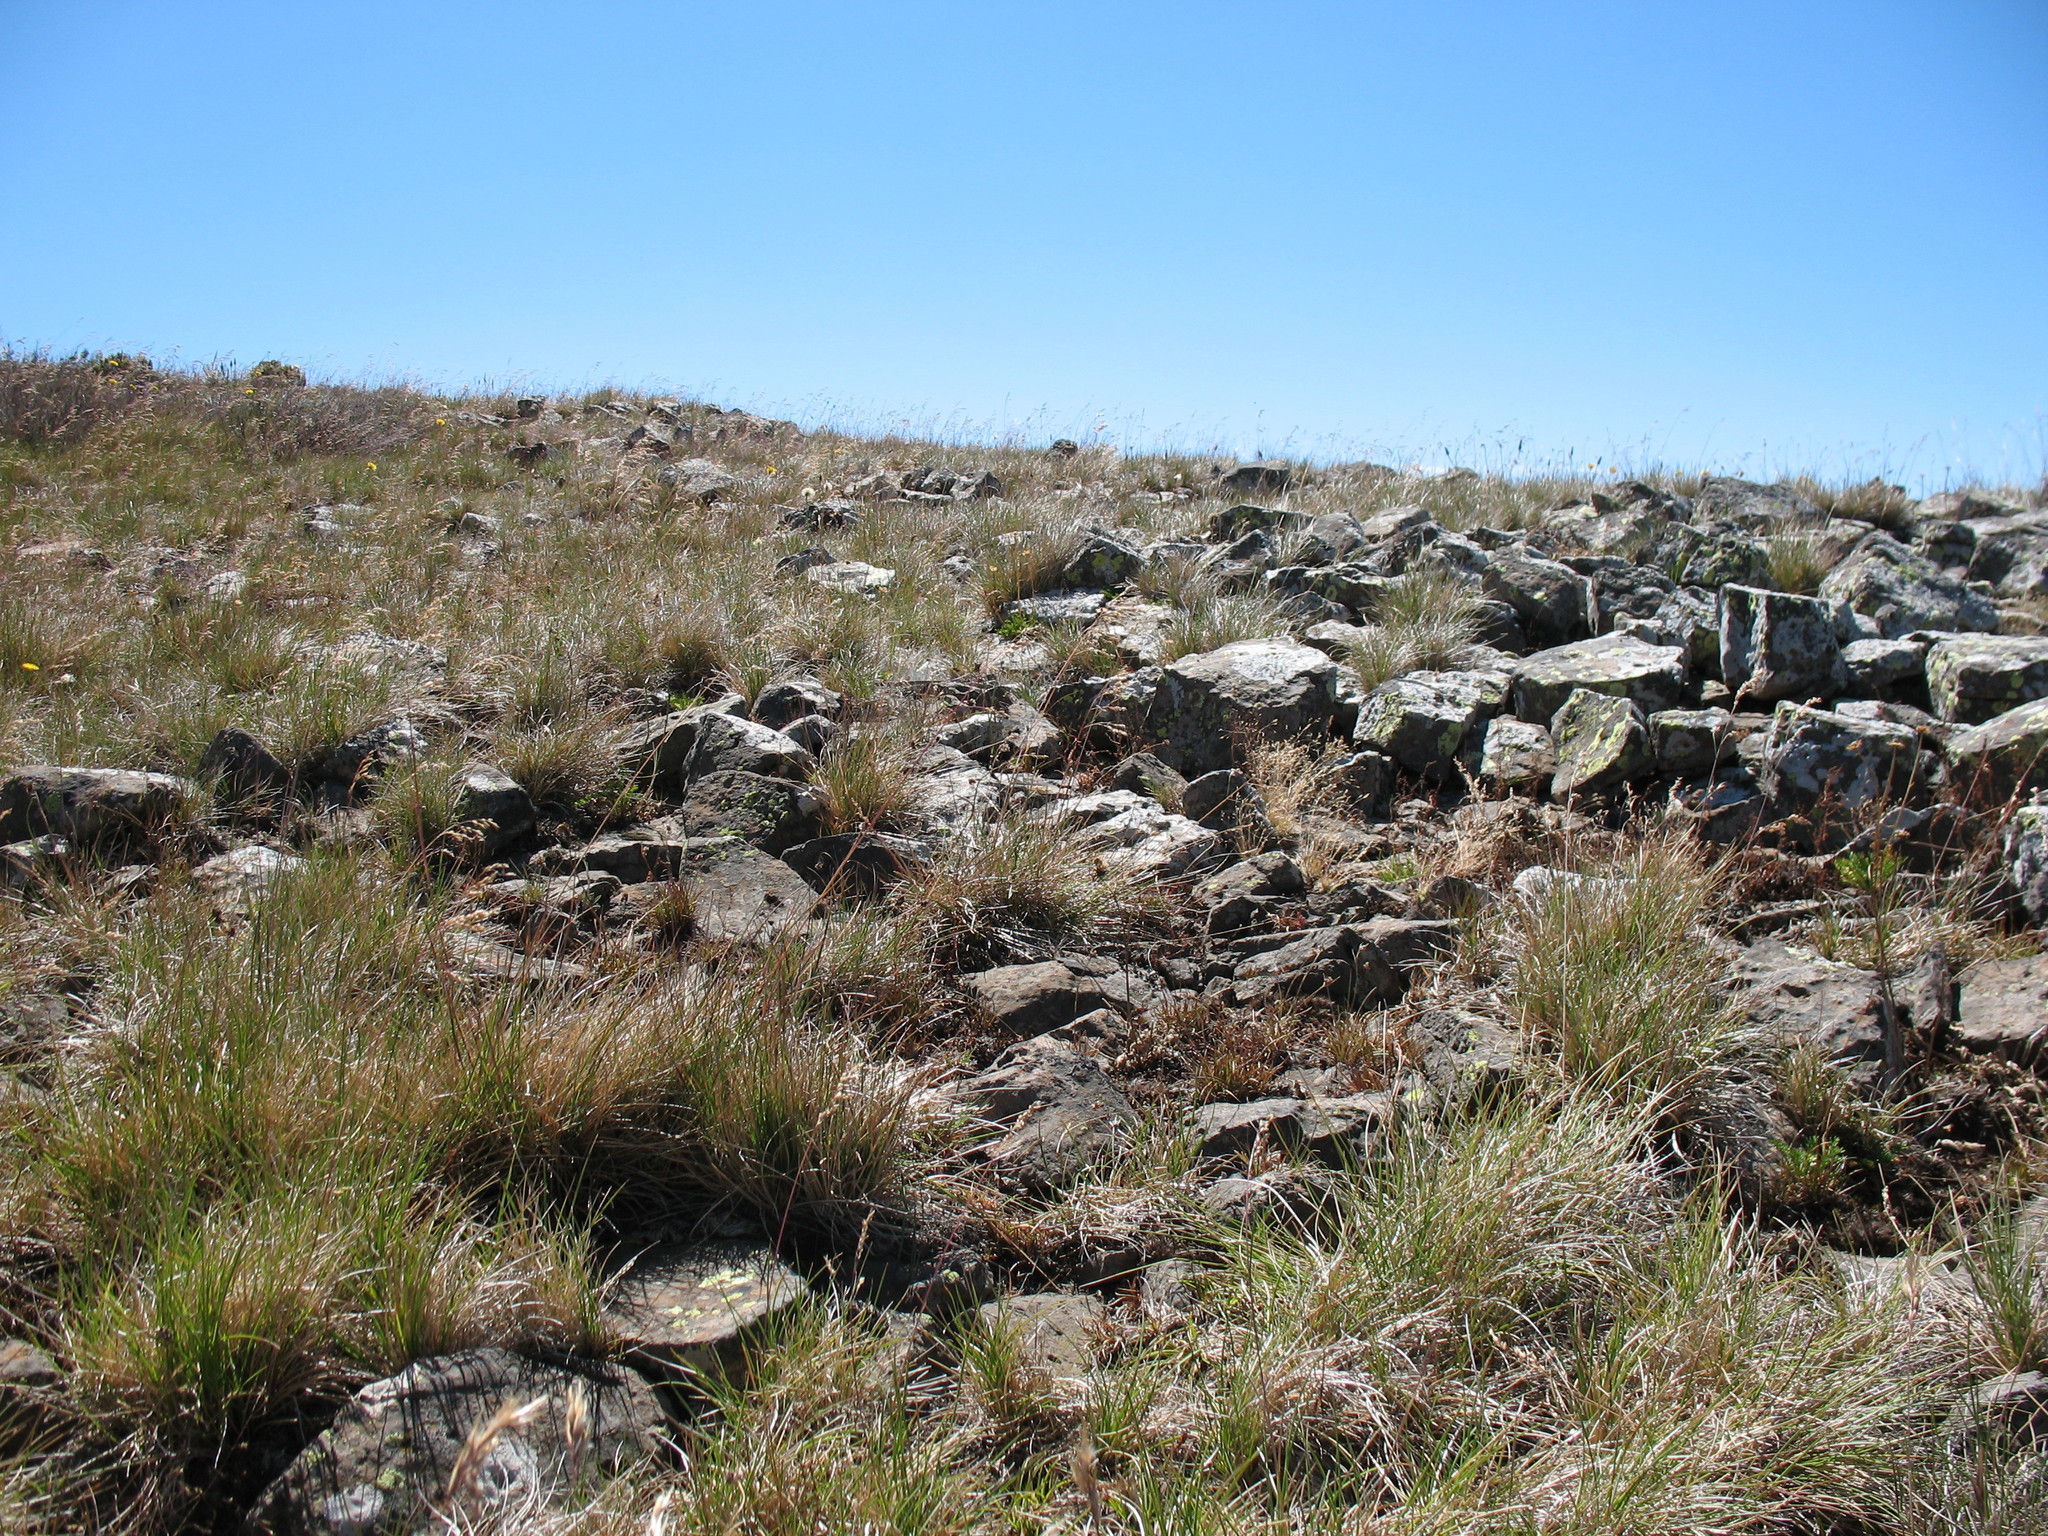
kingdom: Plantae
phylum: Tracheophyta
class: Liliopsida
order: Poales
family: Poaceae
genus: Rytidosperma
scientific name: Rytidosperma alpicola
